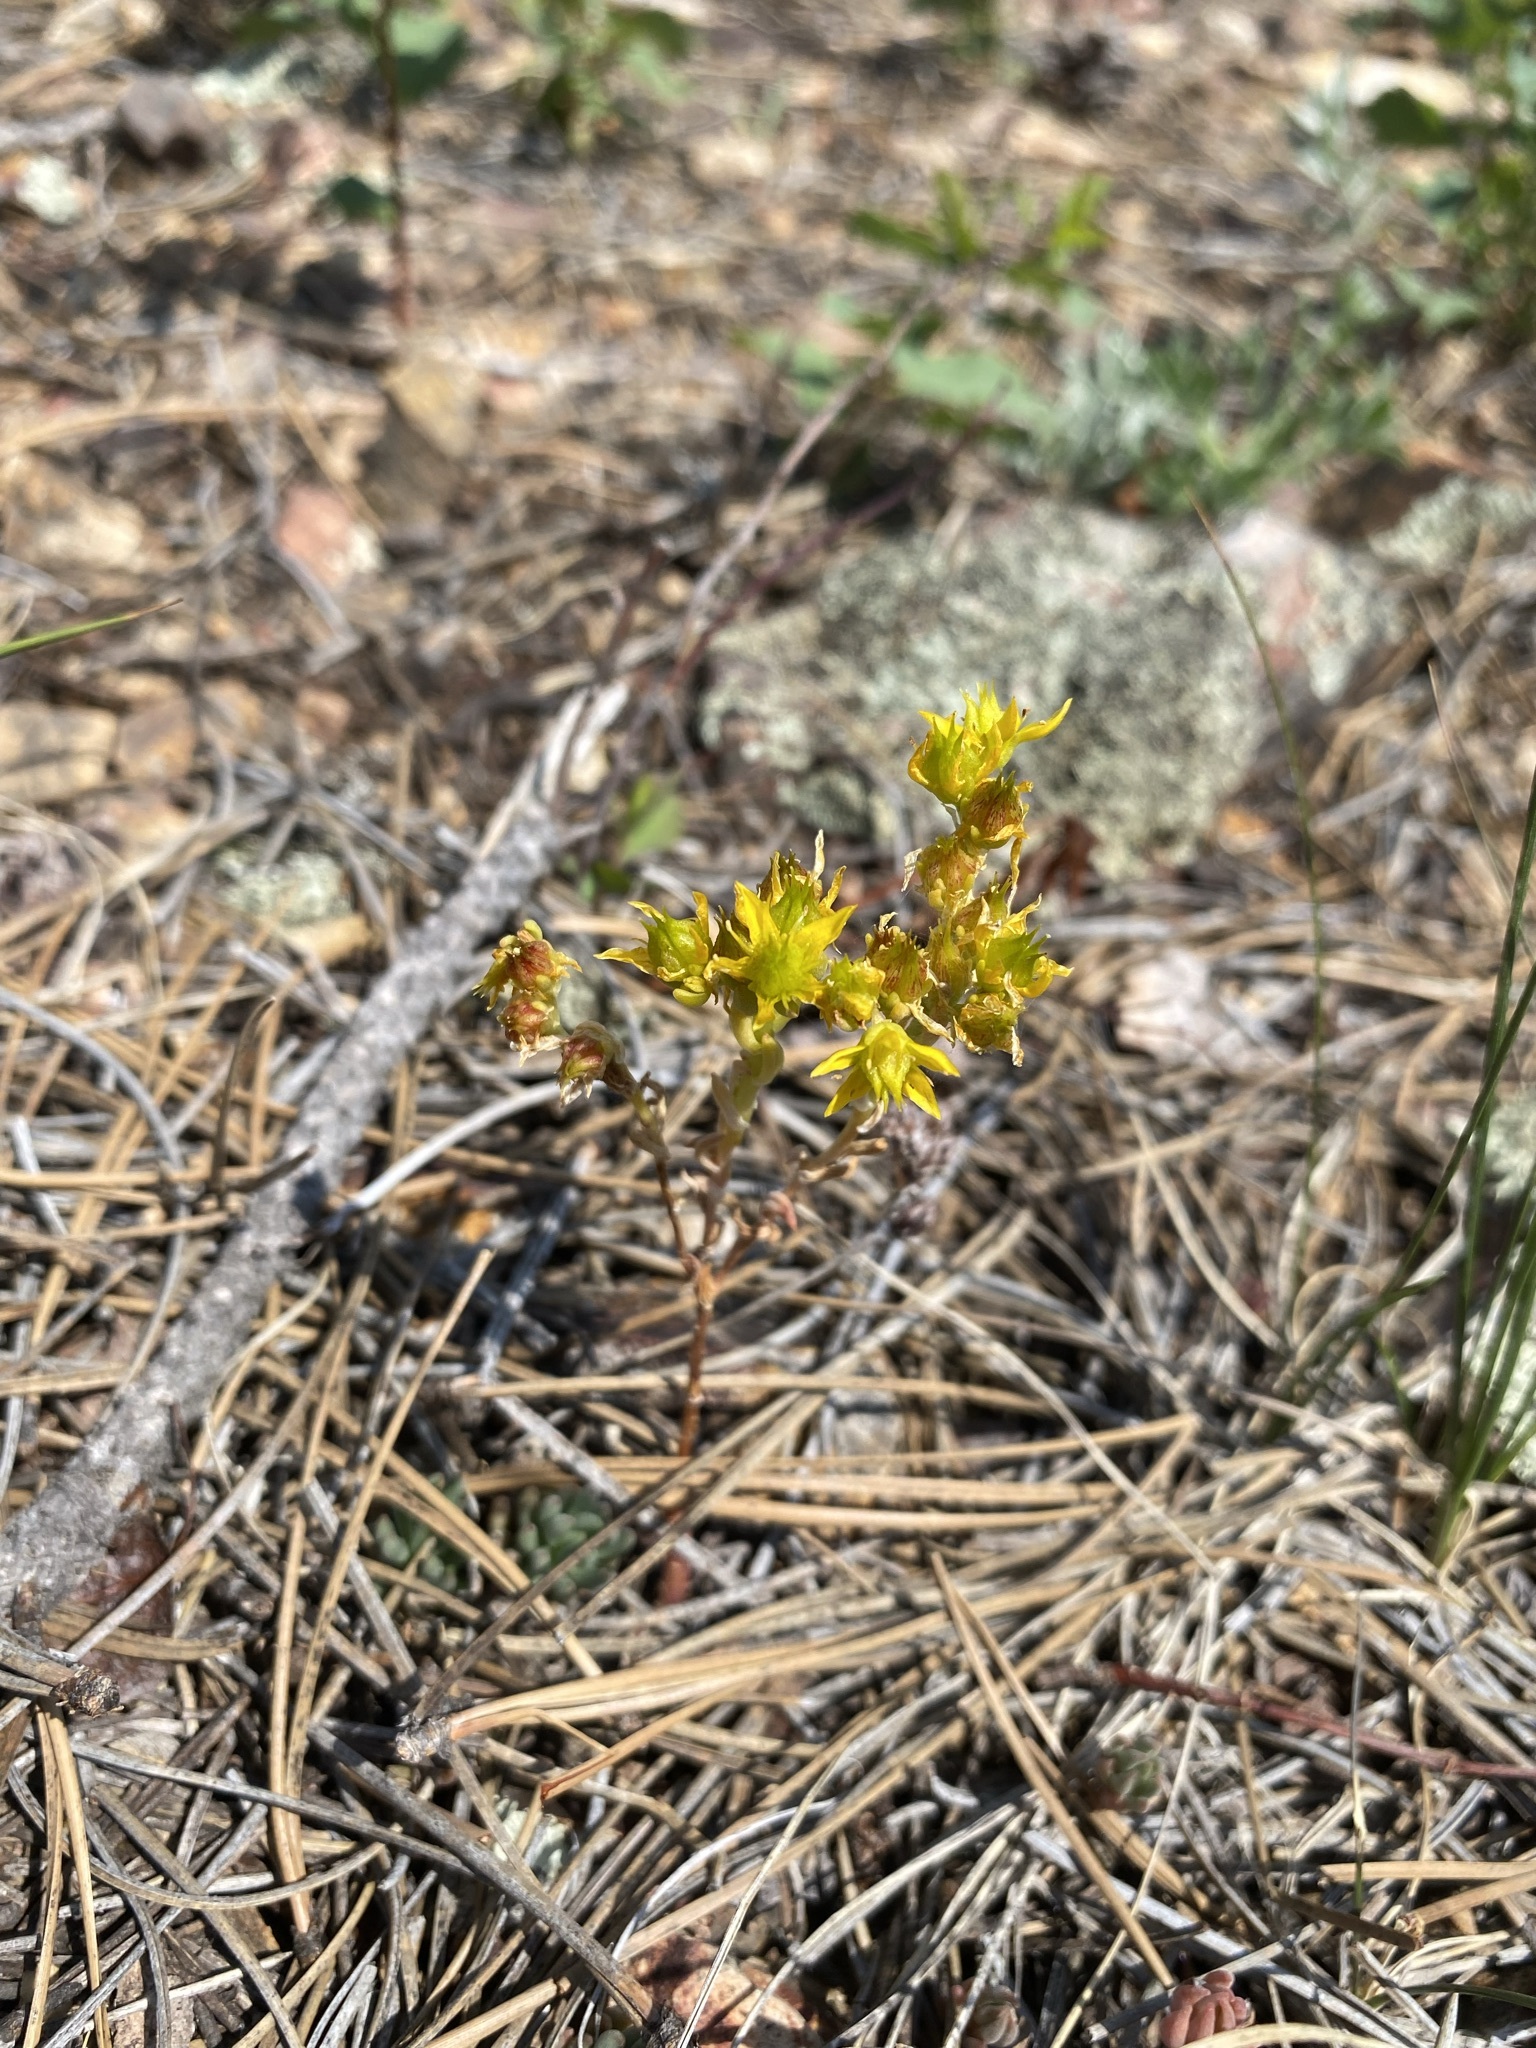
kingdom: Plantae
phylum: Tracheophyta
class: Magnoliopsida
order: Saxifragales
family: Crassulaceae
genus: Sedum
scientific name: Sedum lanceolatum
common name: Common stonecrop
